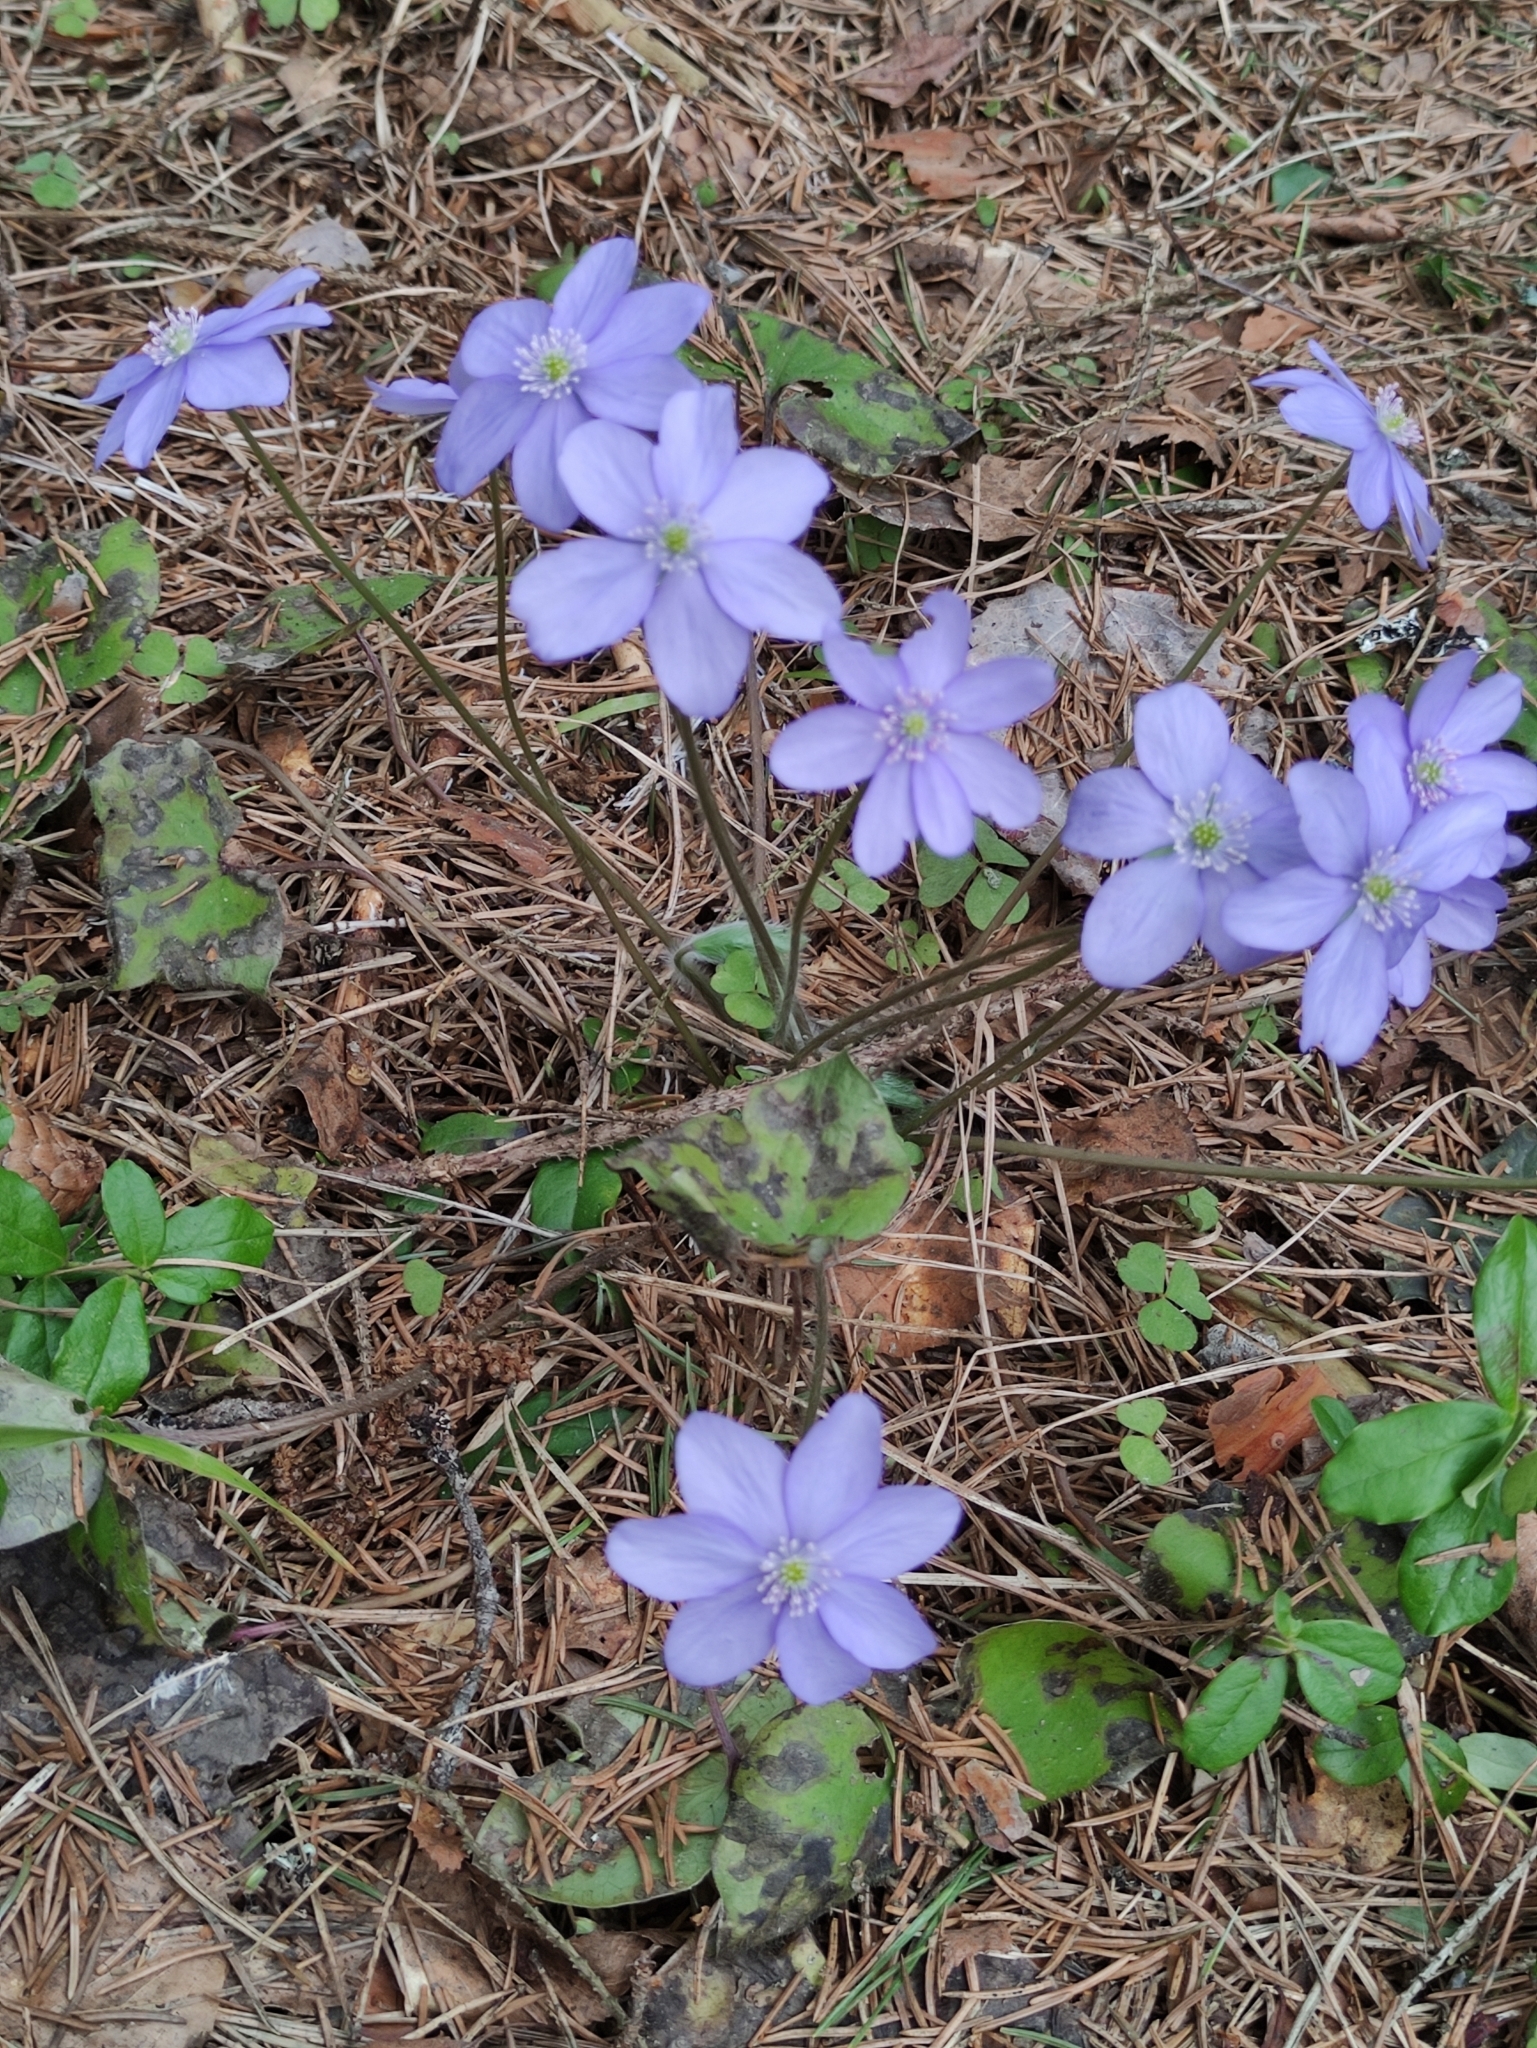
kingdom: Plantae
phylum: Tracheophyta
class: Magnoliopsida
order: Ranunculales
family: Ranunculaceae
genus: Hepatica
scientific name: Hepatica nobilis
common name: Liverleaf
